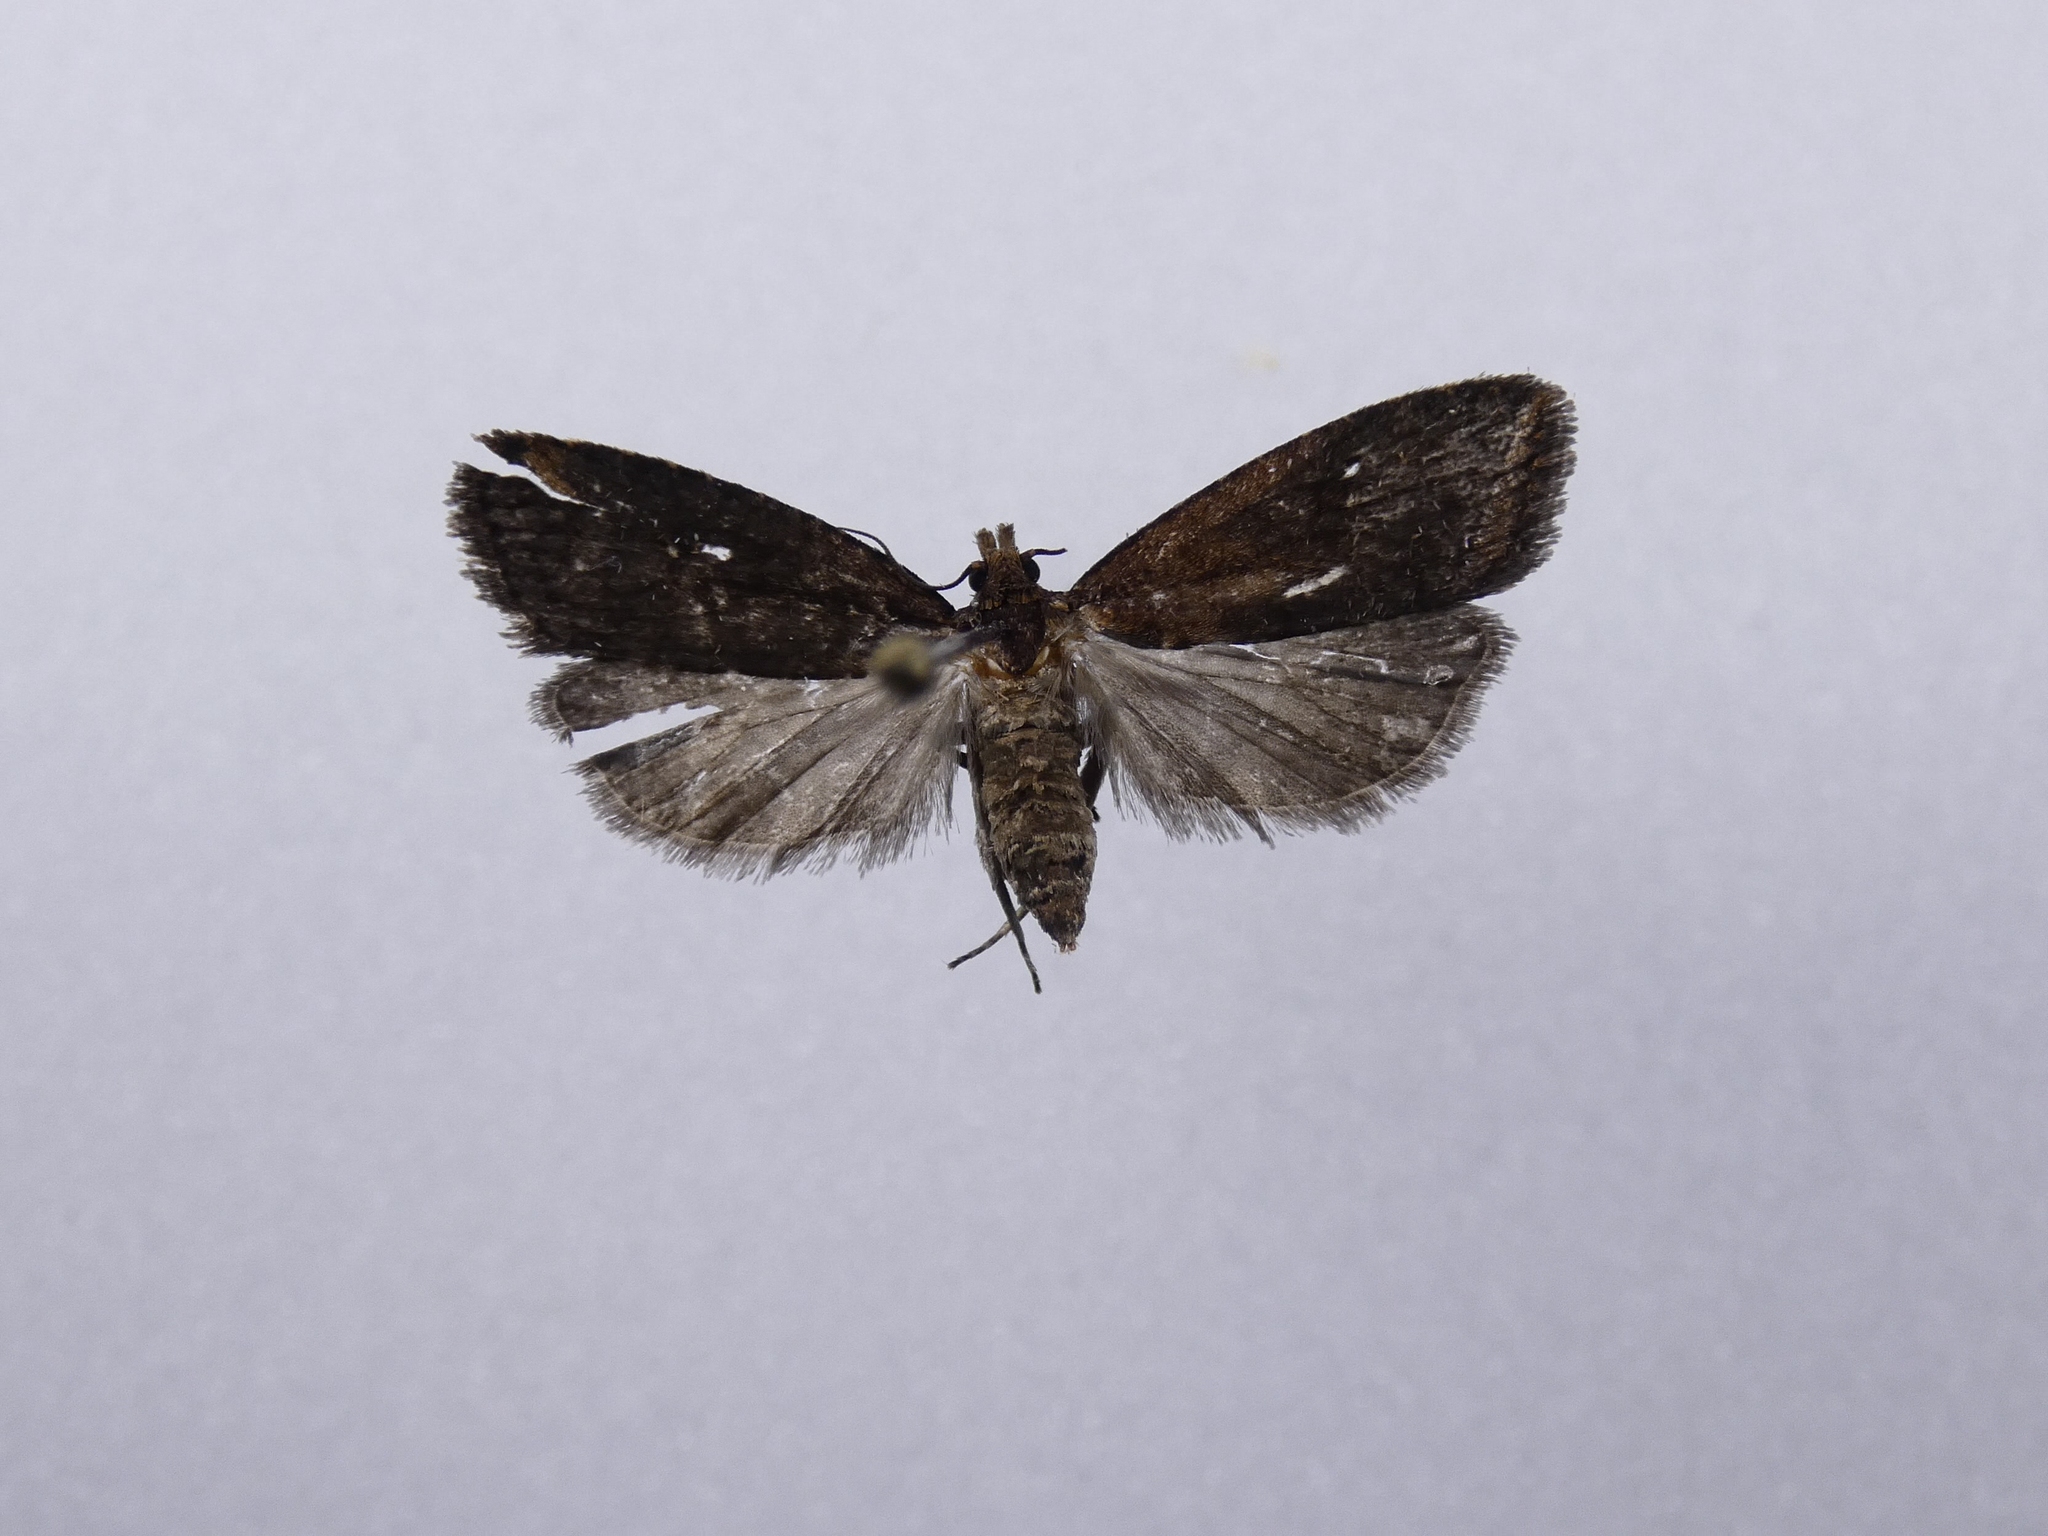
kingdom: Animalia
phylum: Arthropoda
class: Insecta
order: Lepidoptera
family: Tortricidae
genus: Cryptaspasma
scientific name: Cryptaspasma querula
